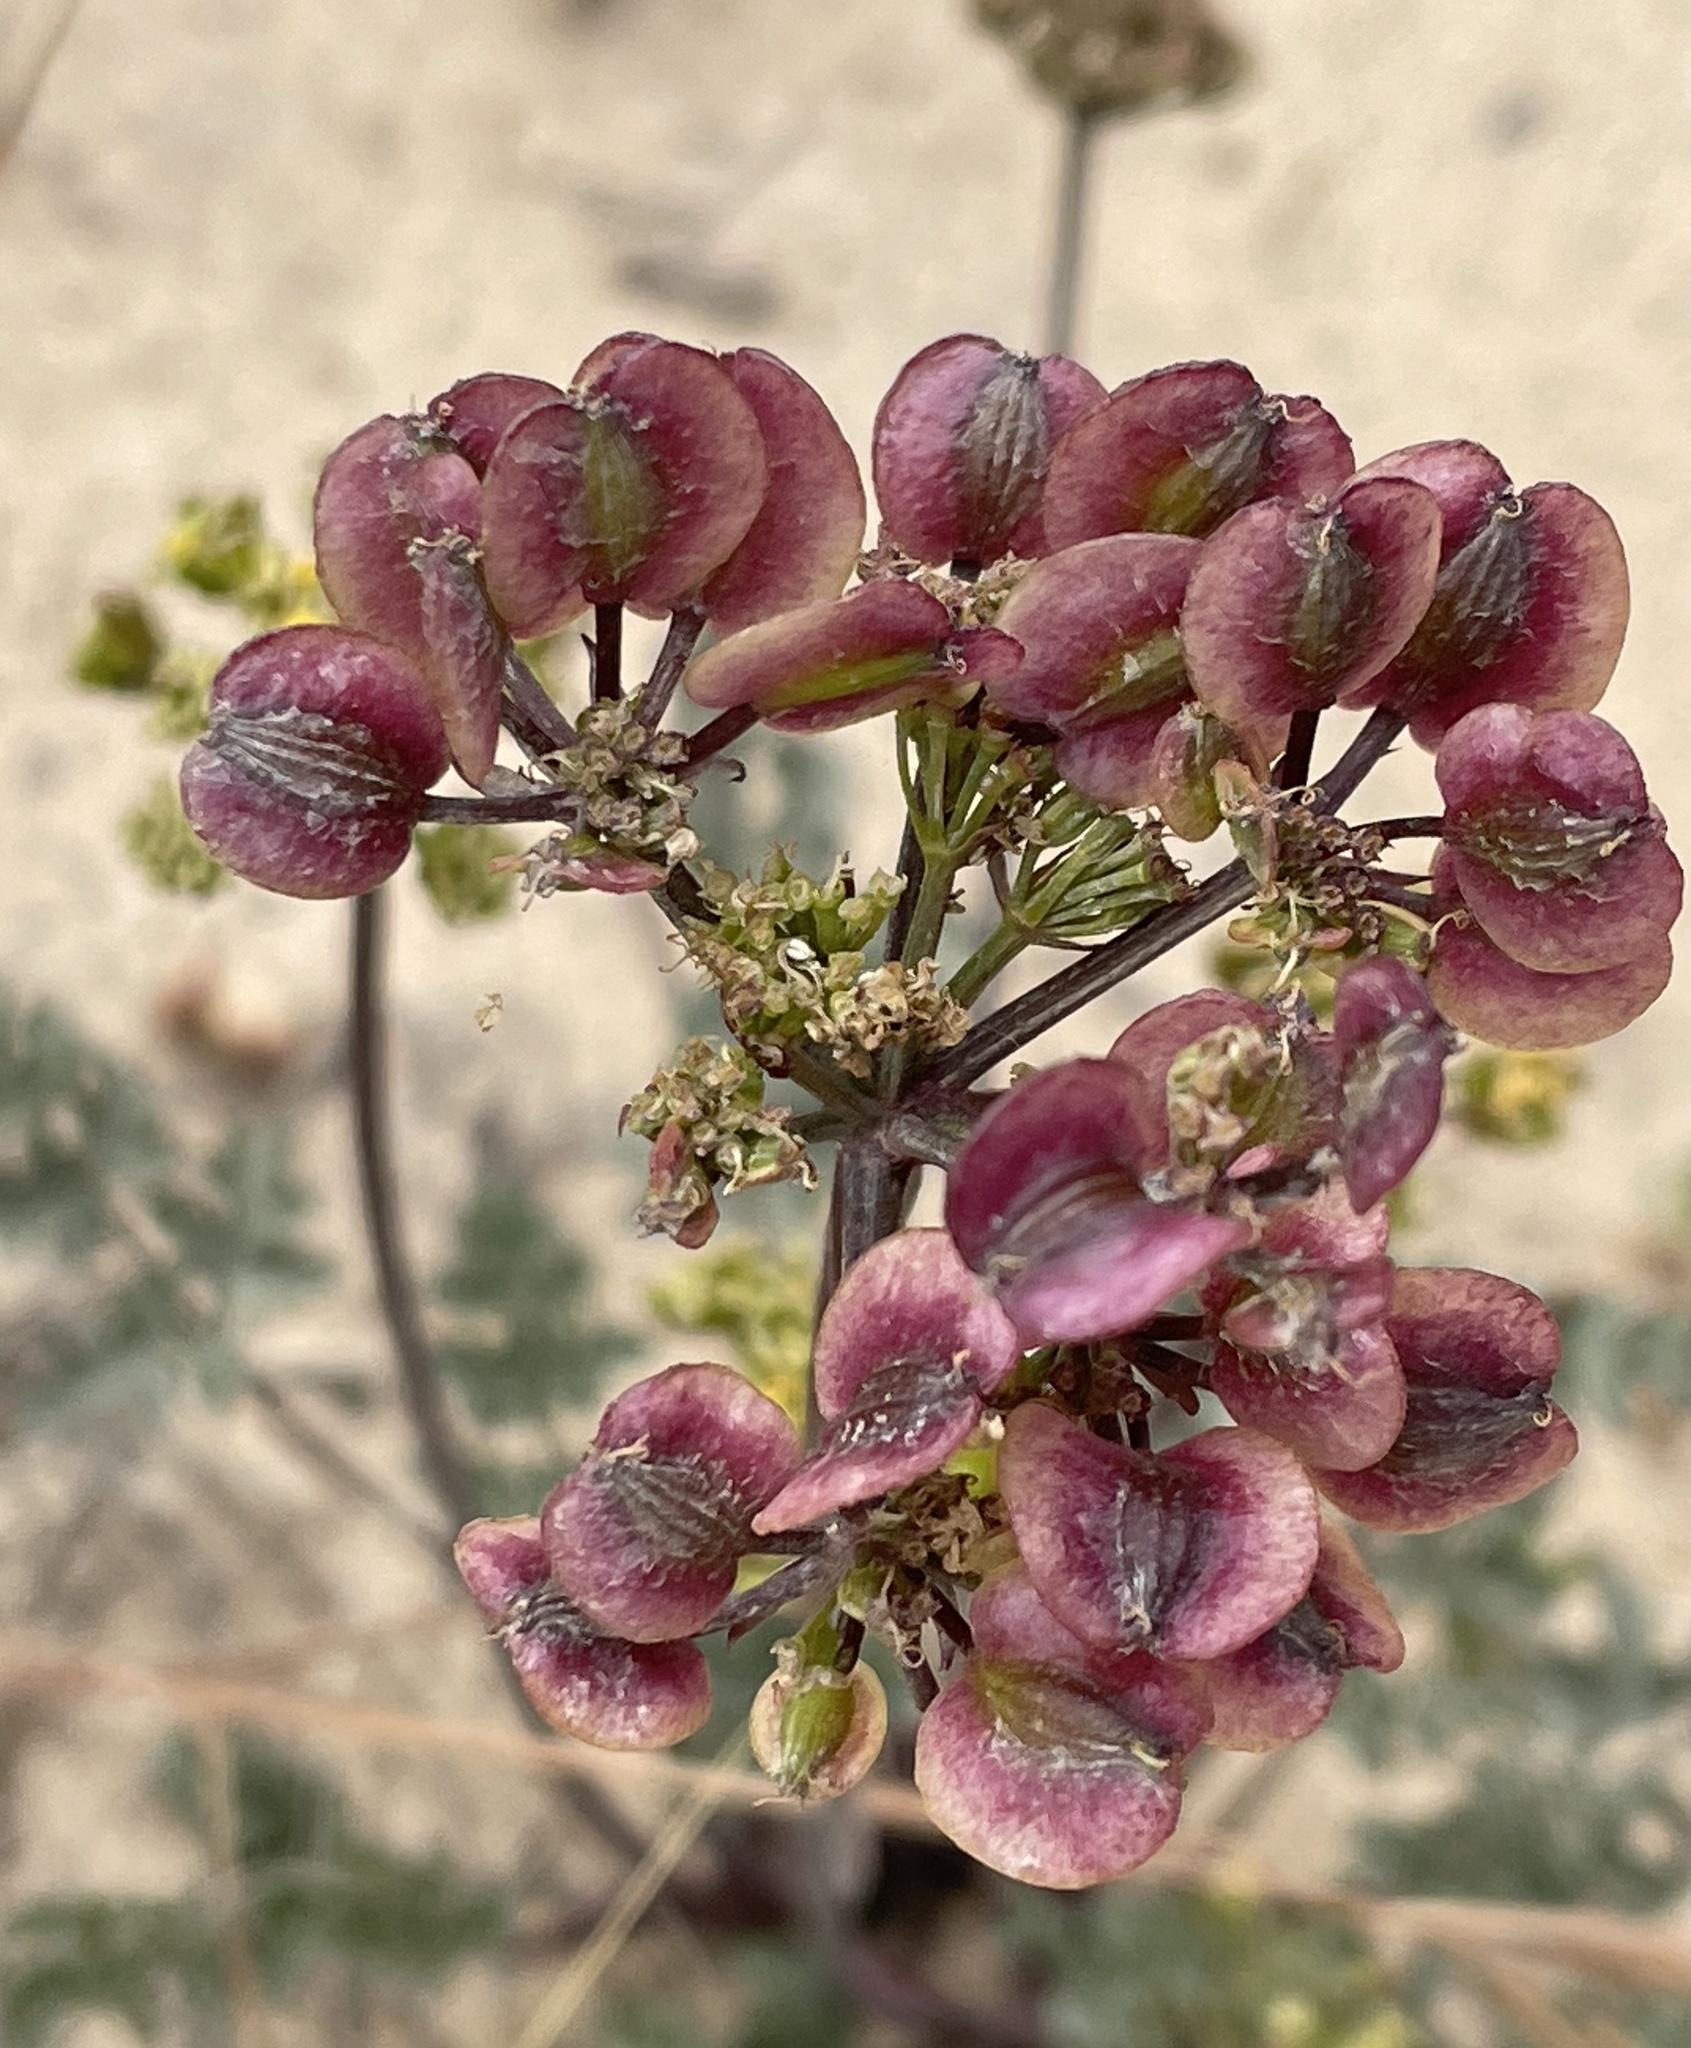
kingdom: Plantae
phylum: Tracheophyta
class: Magnoliopsida
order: Apiales
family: Apiaceae
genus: Lomatium
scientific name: Lomatium parvifolium
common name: Small-leaf lomatium
